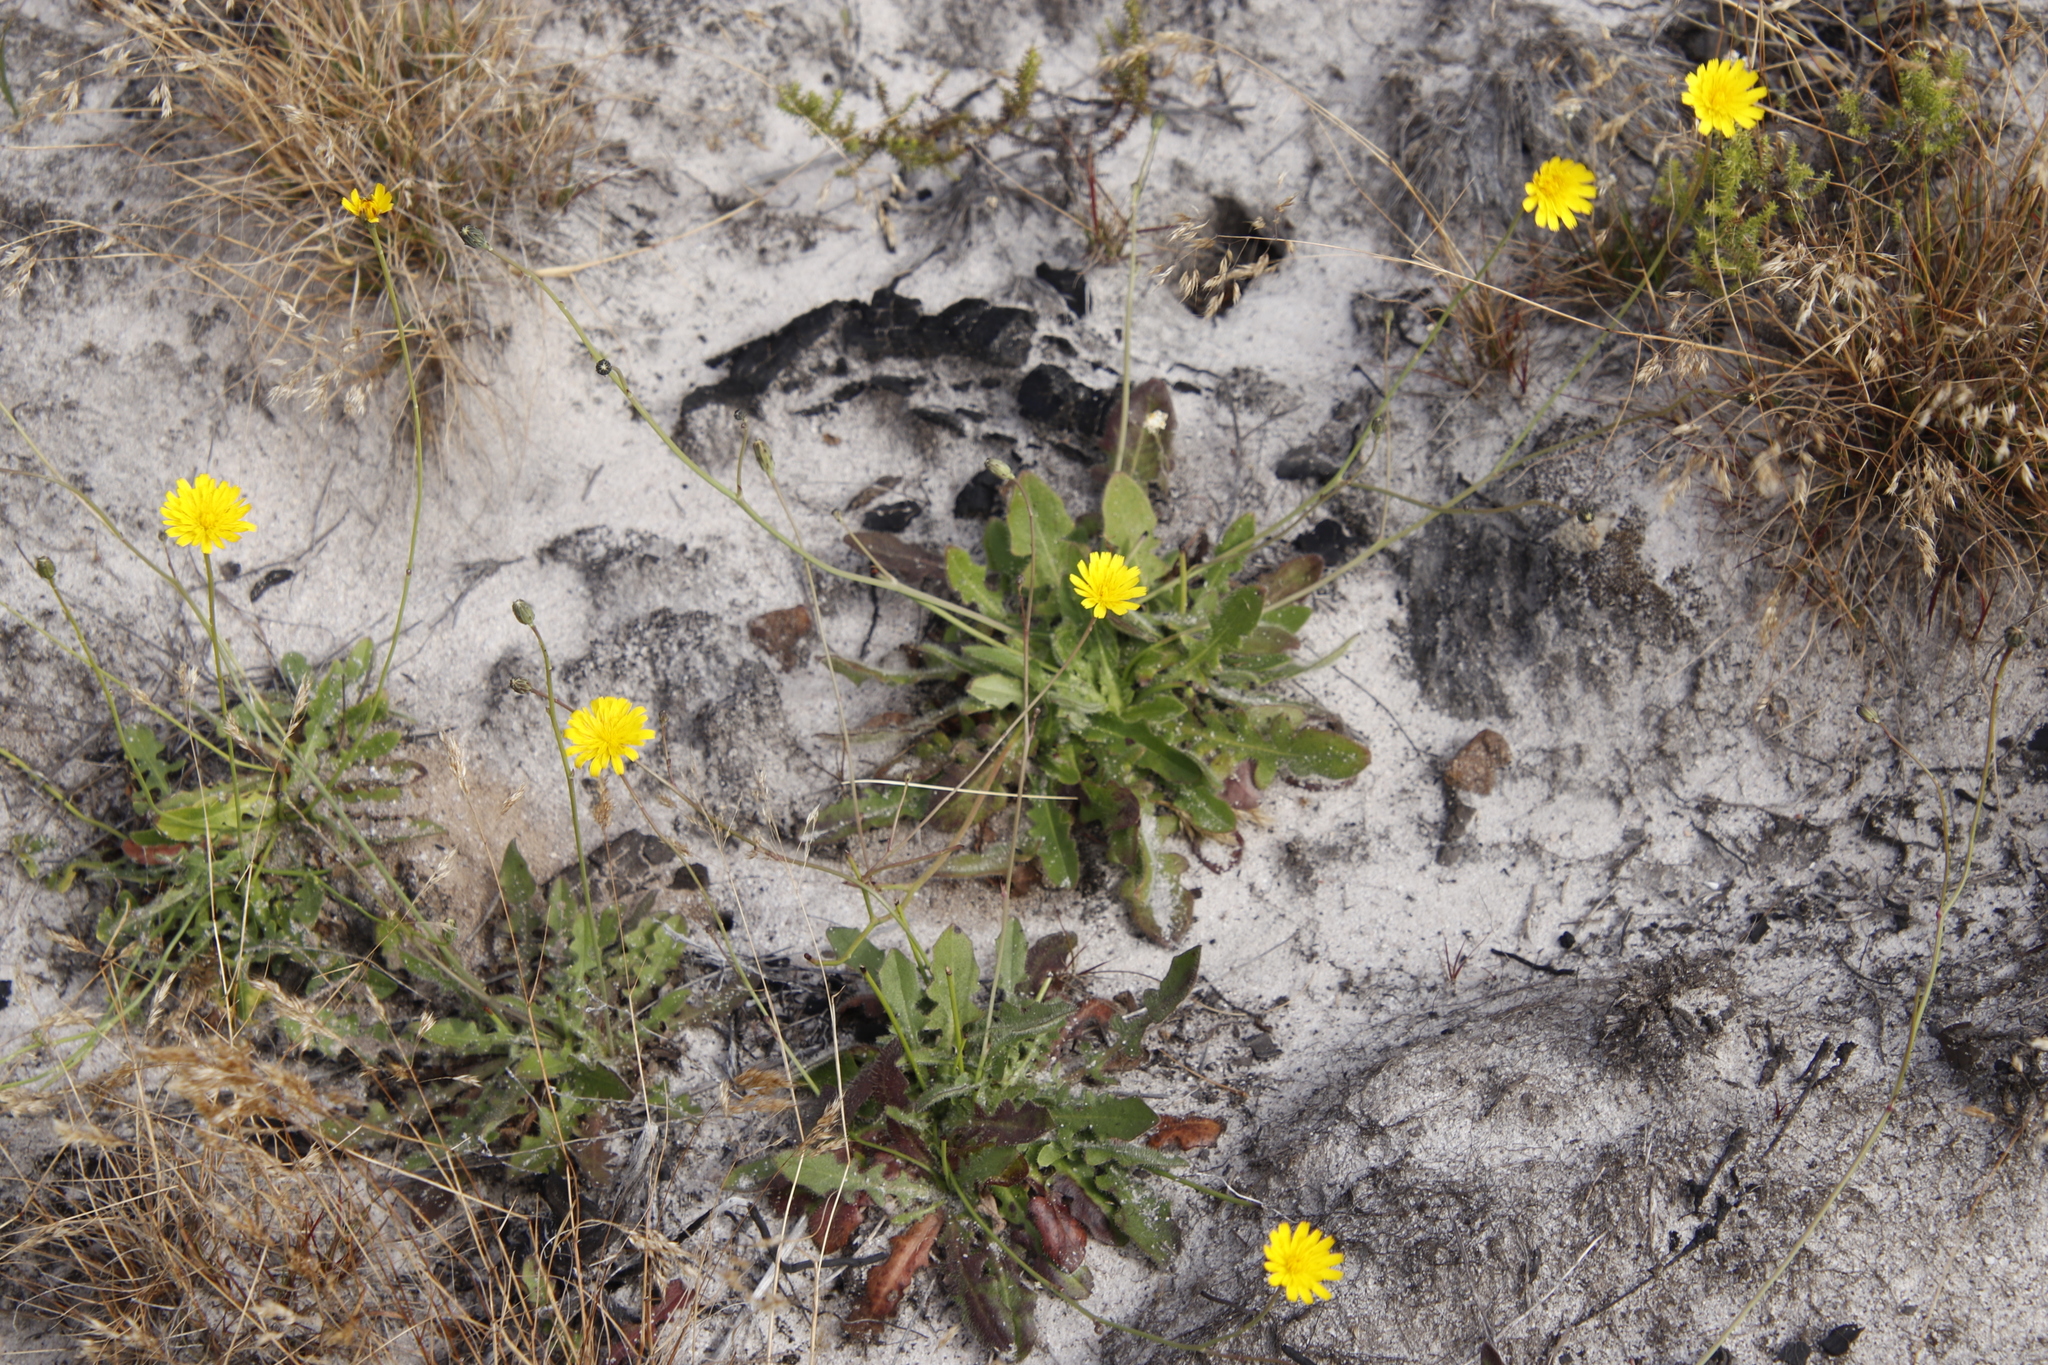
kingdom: Plantae
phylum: Tracheophyta
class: Magnoliopsida
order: Asterales
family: Asteraceae
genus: Hypochaeris
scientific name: Hypochaeris radicata
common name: Flatweed
